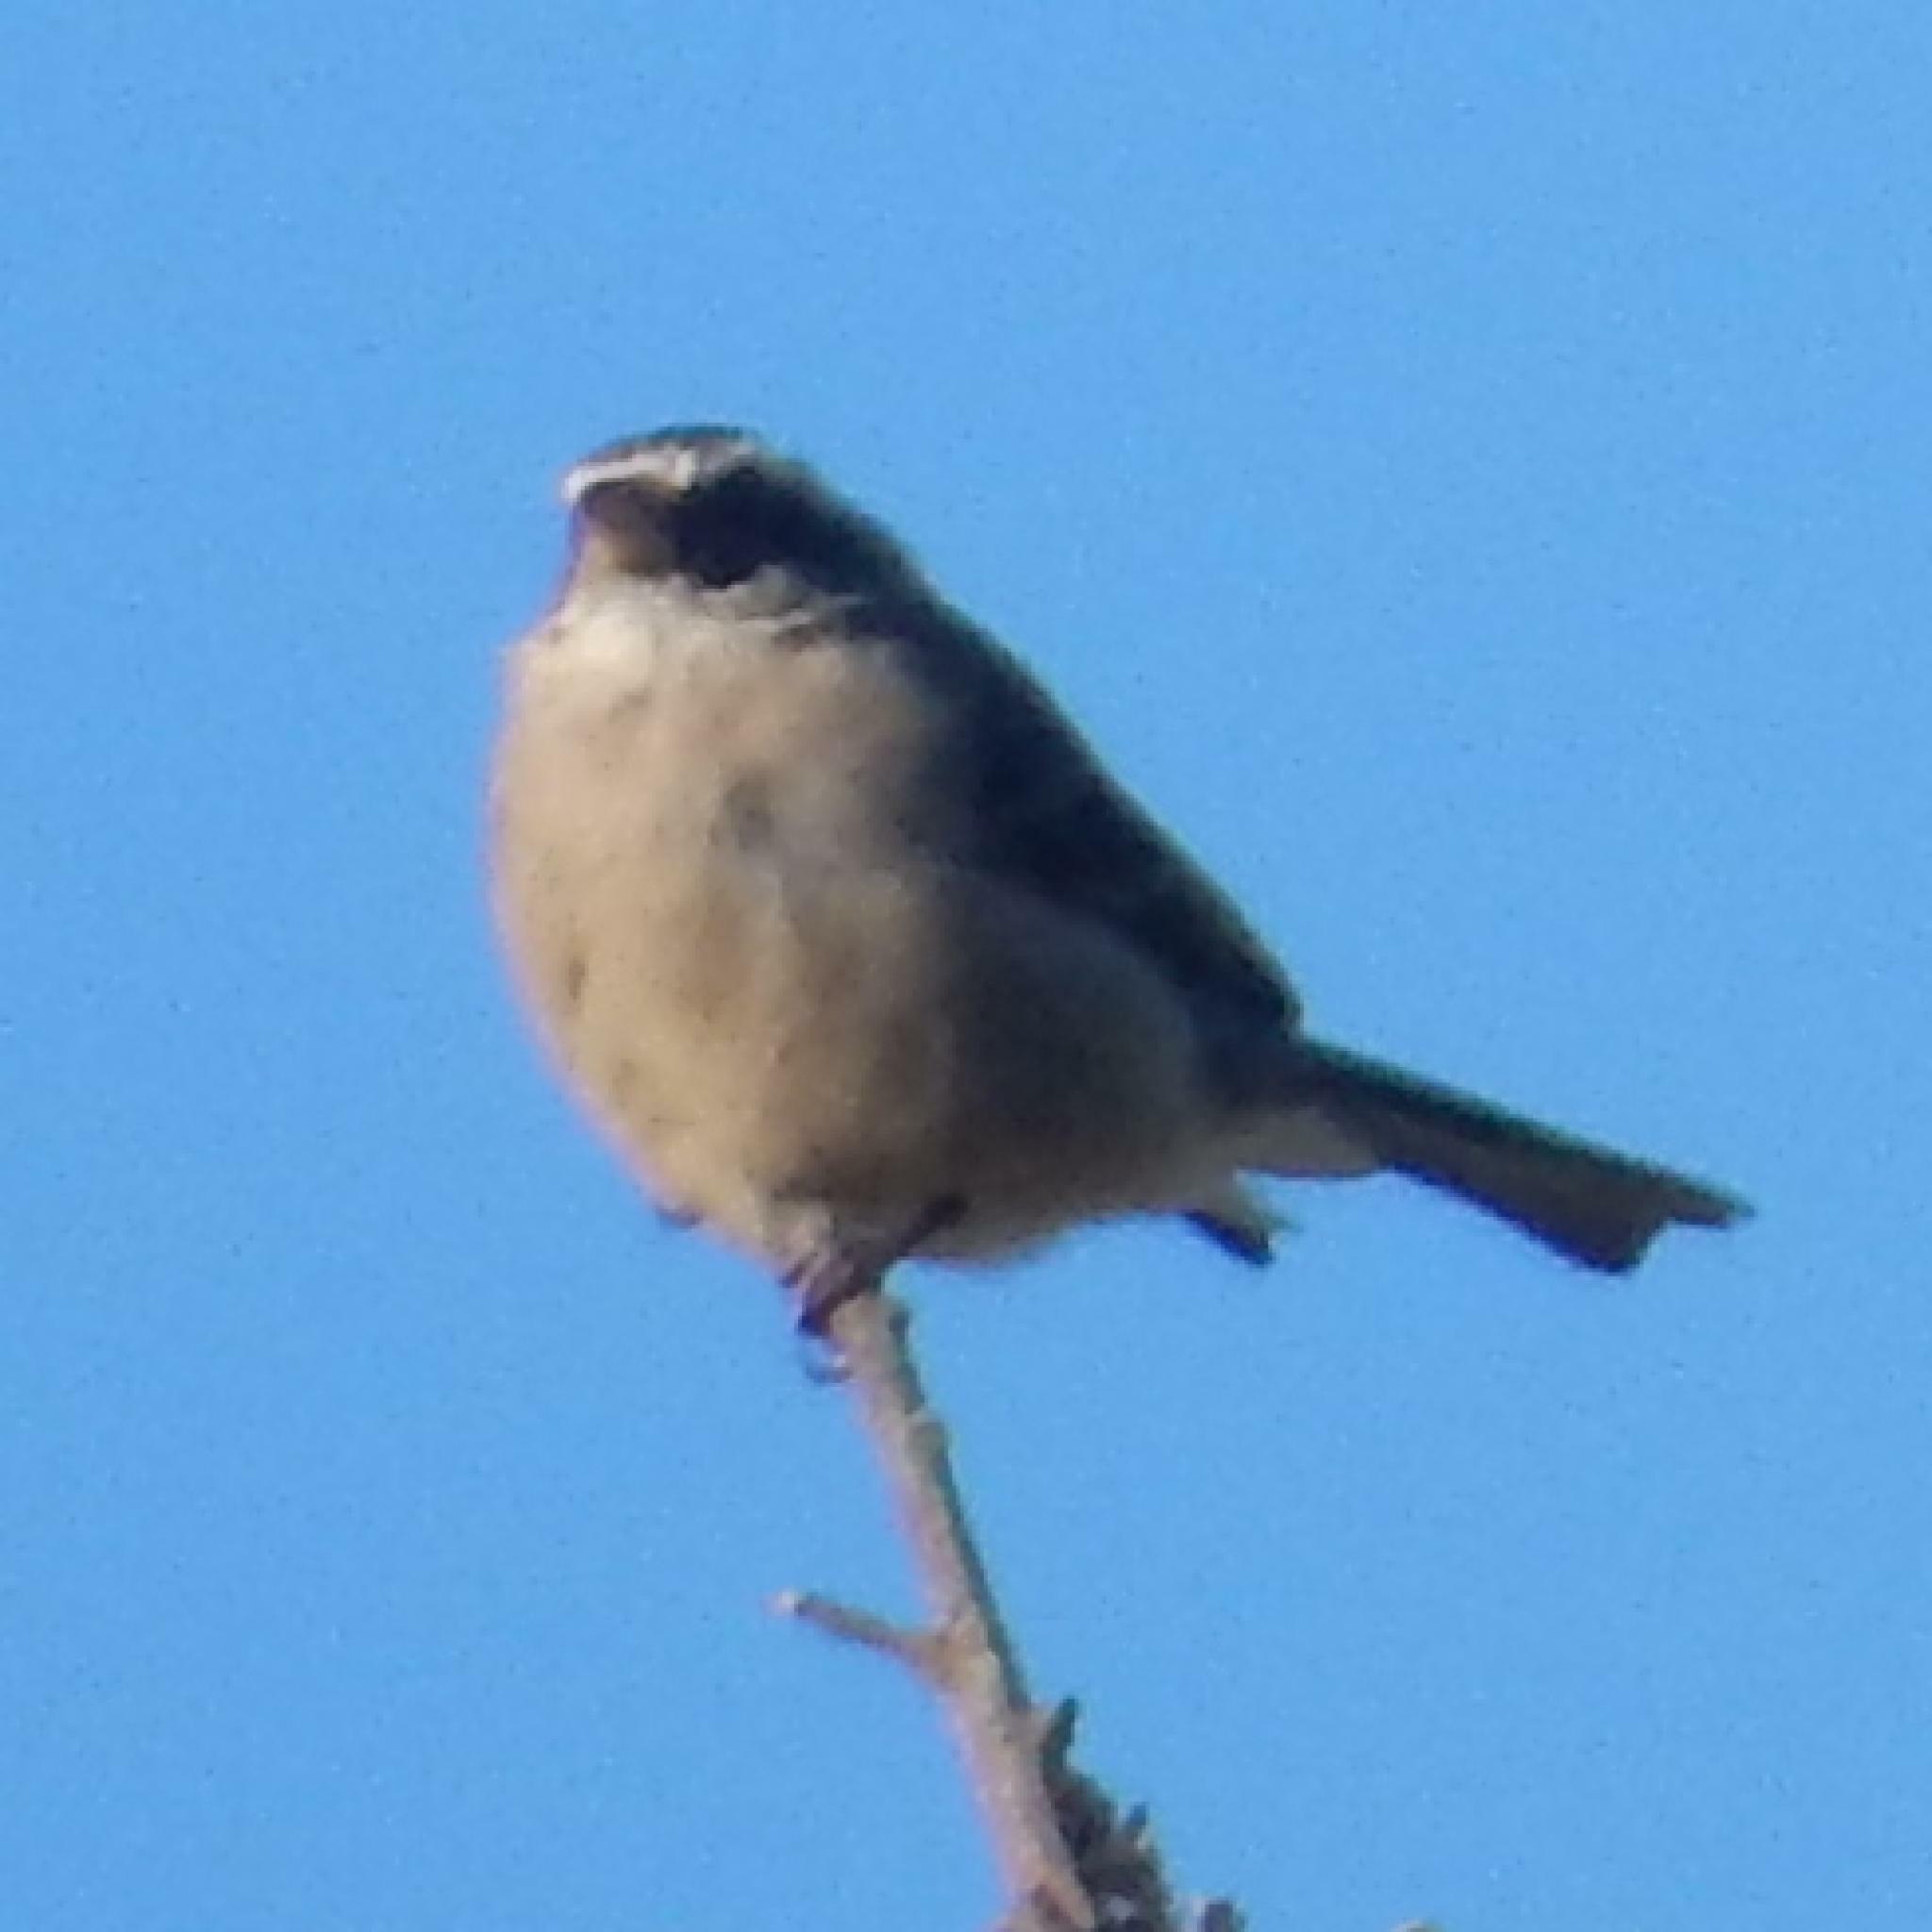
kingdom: Animalia
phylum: Chordata
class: Aves
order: Passeriformes
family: Fringillidae
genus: Crithagra
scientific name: Crithagra gularis
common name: Streaky-headed seedeater
